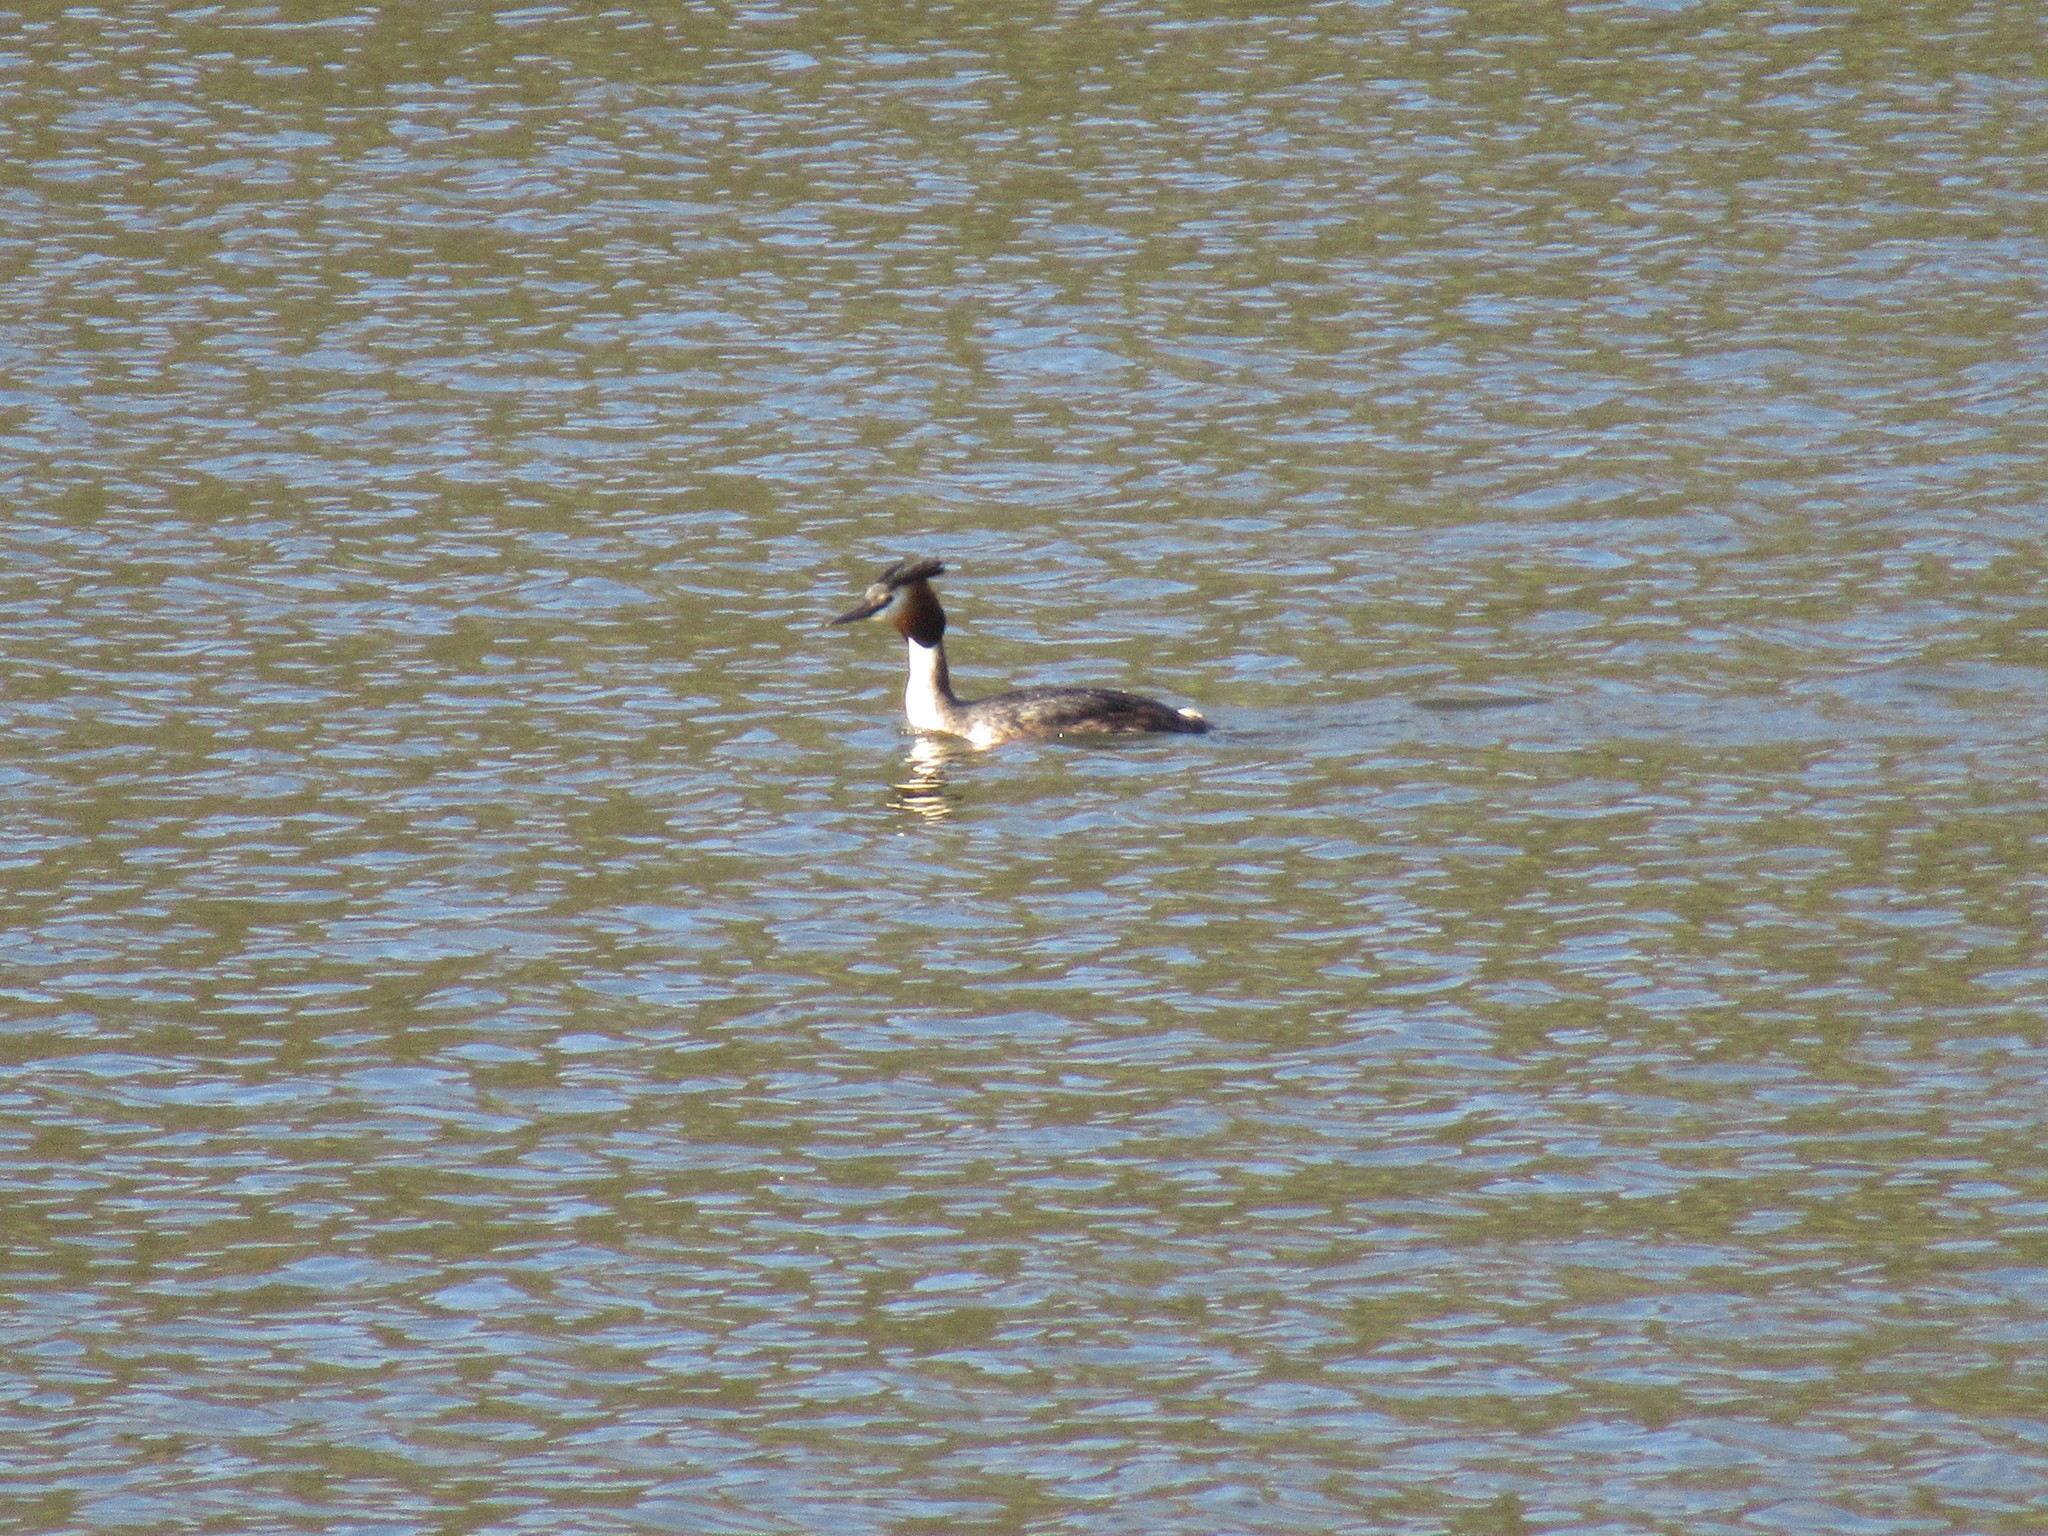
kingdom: Animalia
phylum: Chordata
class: Aves
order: Podicipediformes
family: Podicipedidae
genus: Podiceps
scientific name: Podiceps cristatus
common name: Great crested grebe
